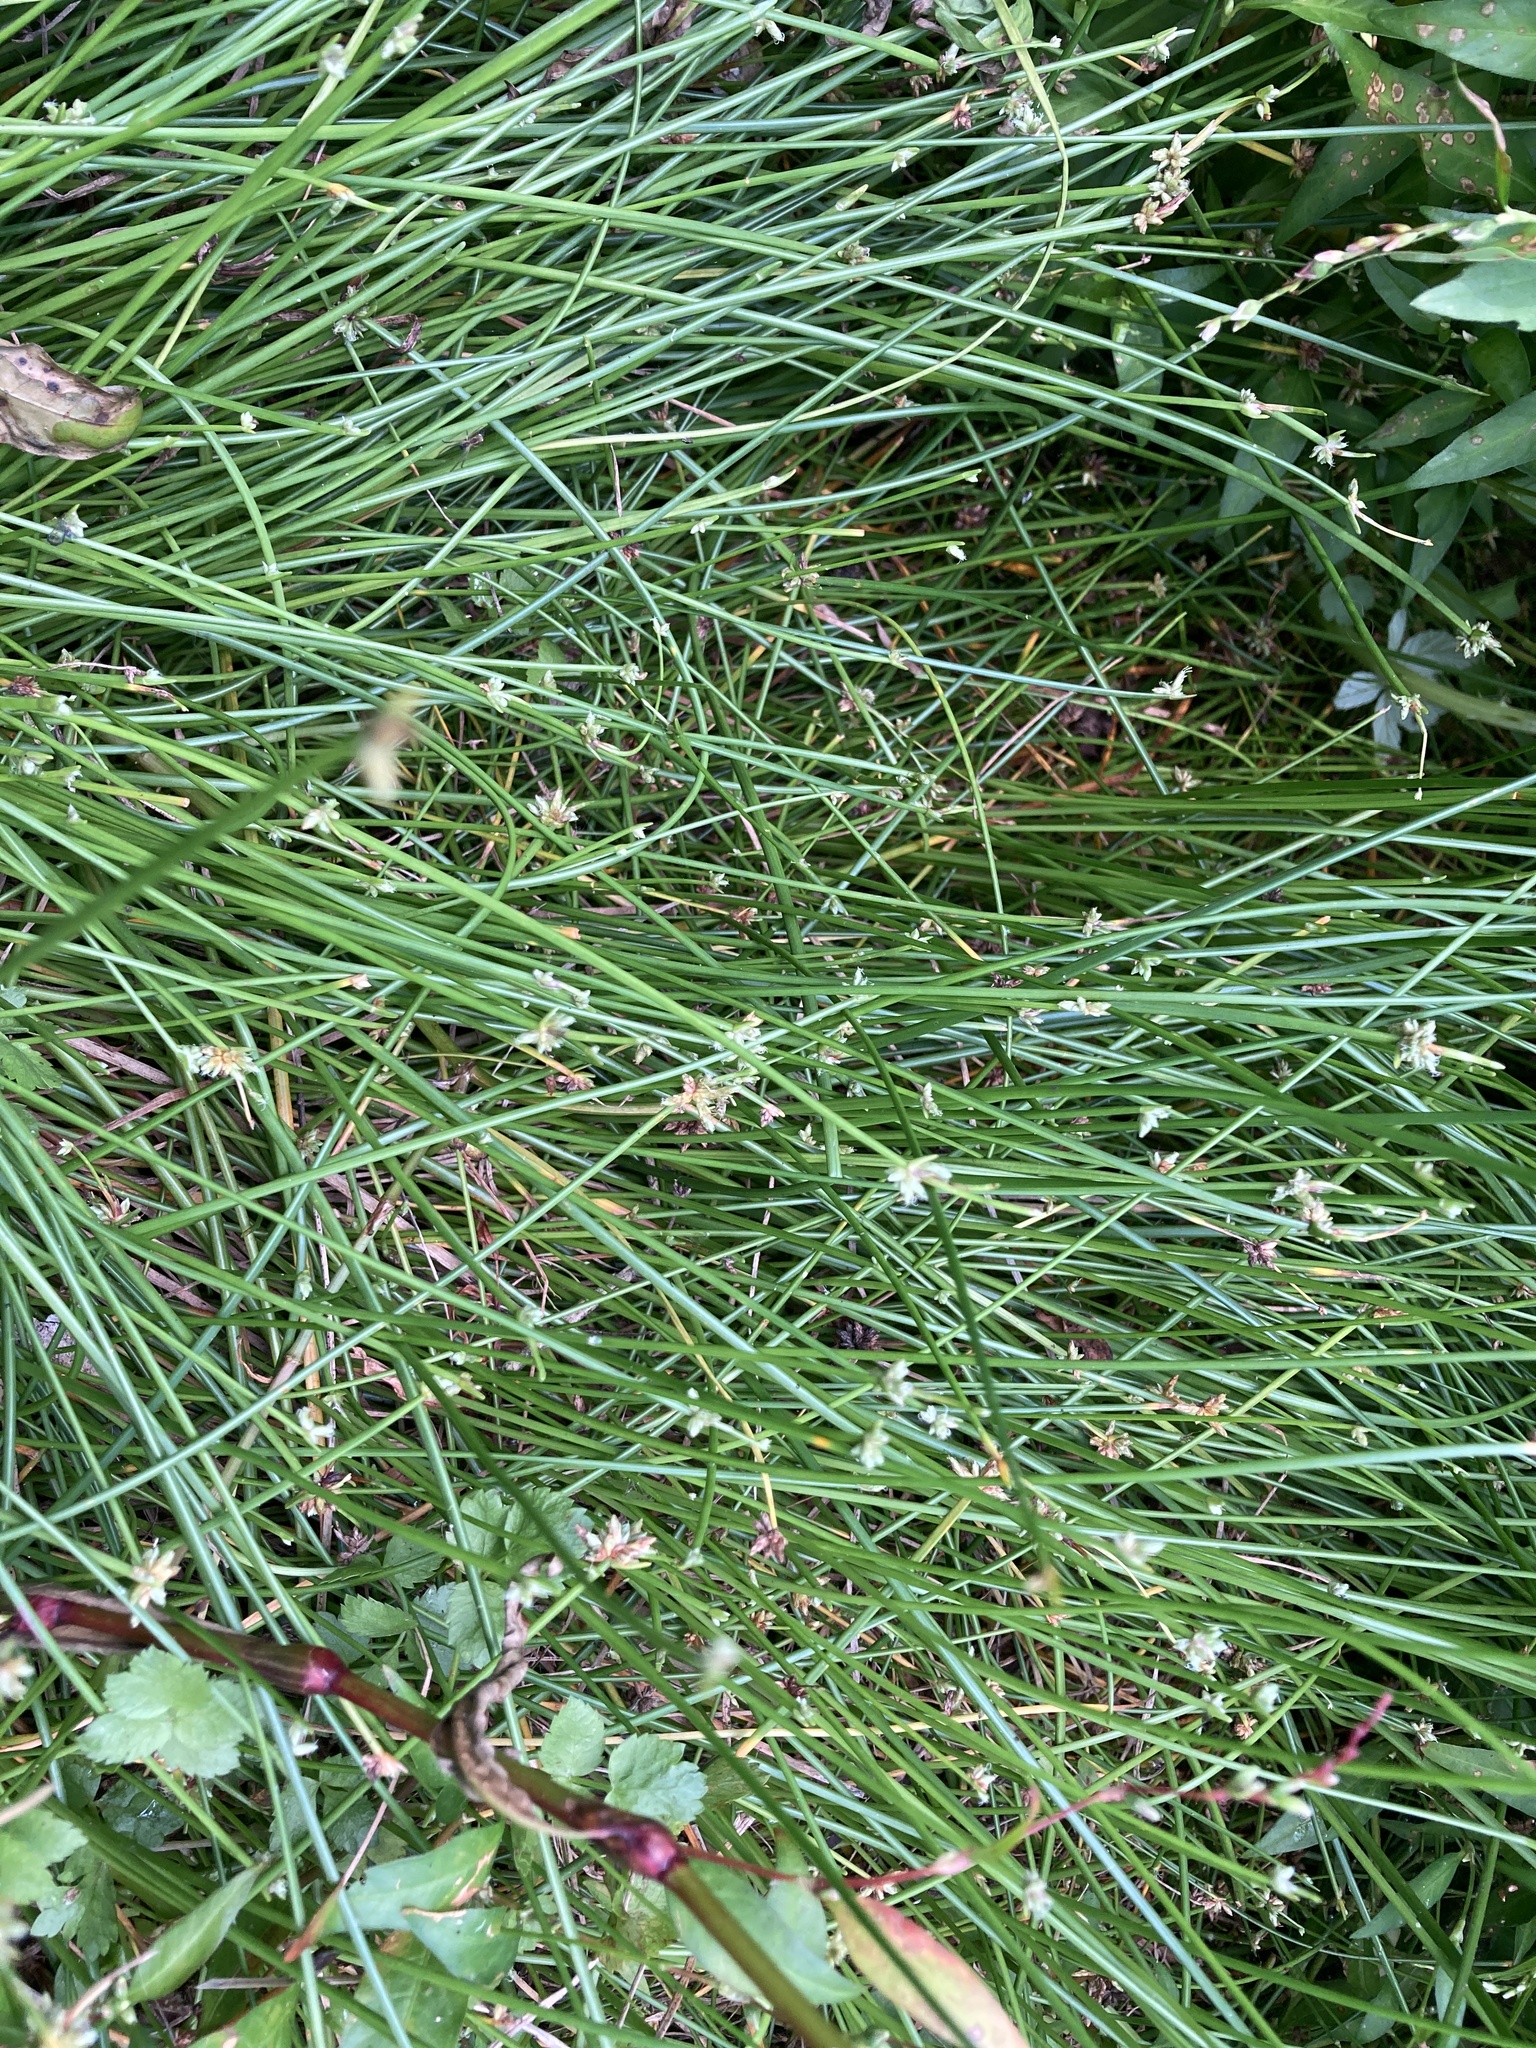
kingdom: Plantae
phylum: Tracheophyta
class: Liliopsida
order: Poales
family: Cyperaceae
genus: Isolepis
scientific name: Isolepis prolifera
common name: Proliferating bulrush
